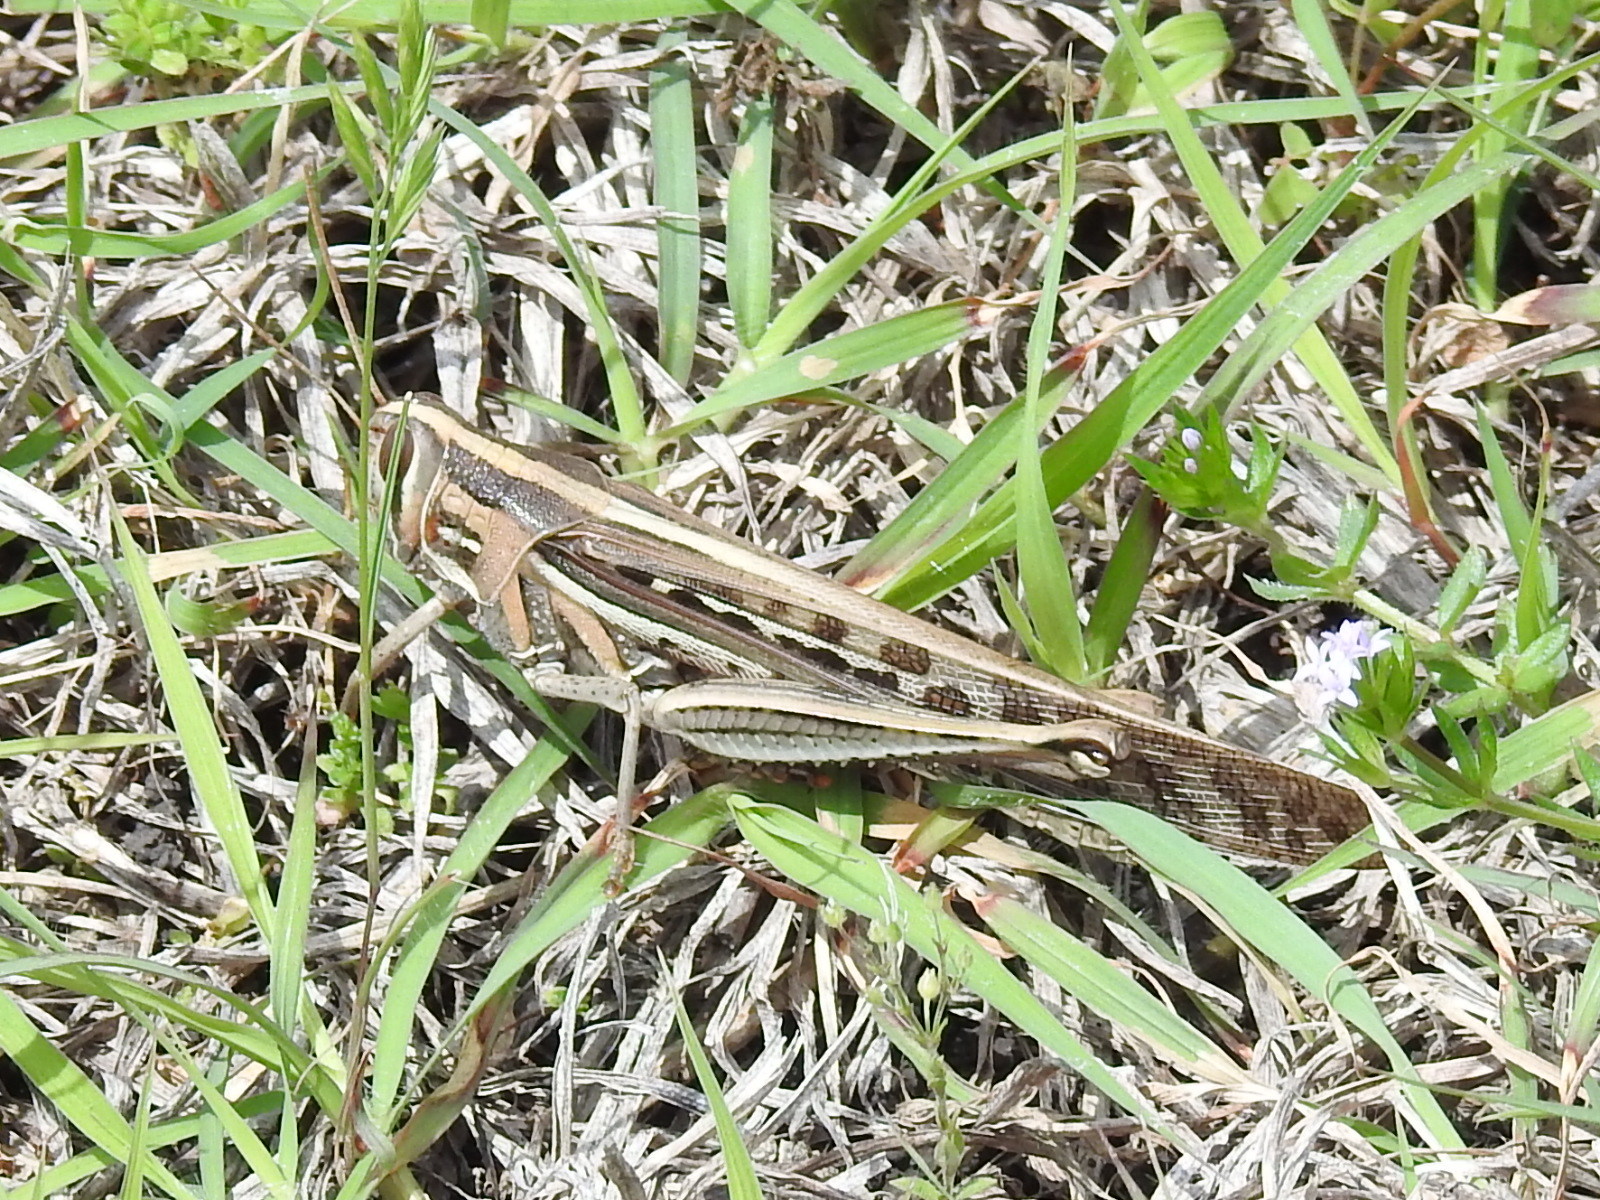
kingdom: Animalia
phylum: Arthropoda
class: Insecta
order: Orthoptera
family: Acrididae
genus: Schistocerca
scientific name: Schistocerca americana
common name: American bird locust
